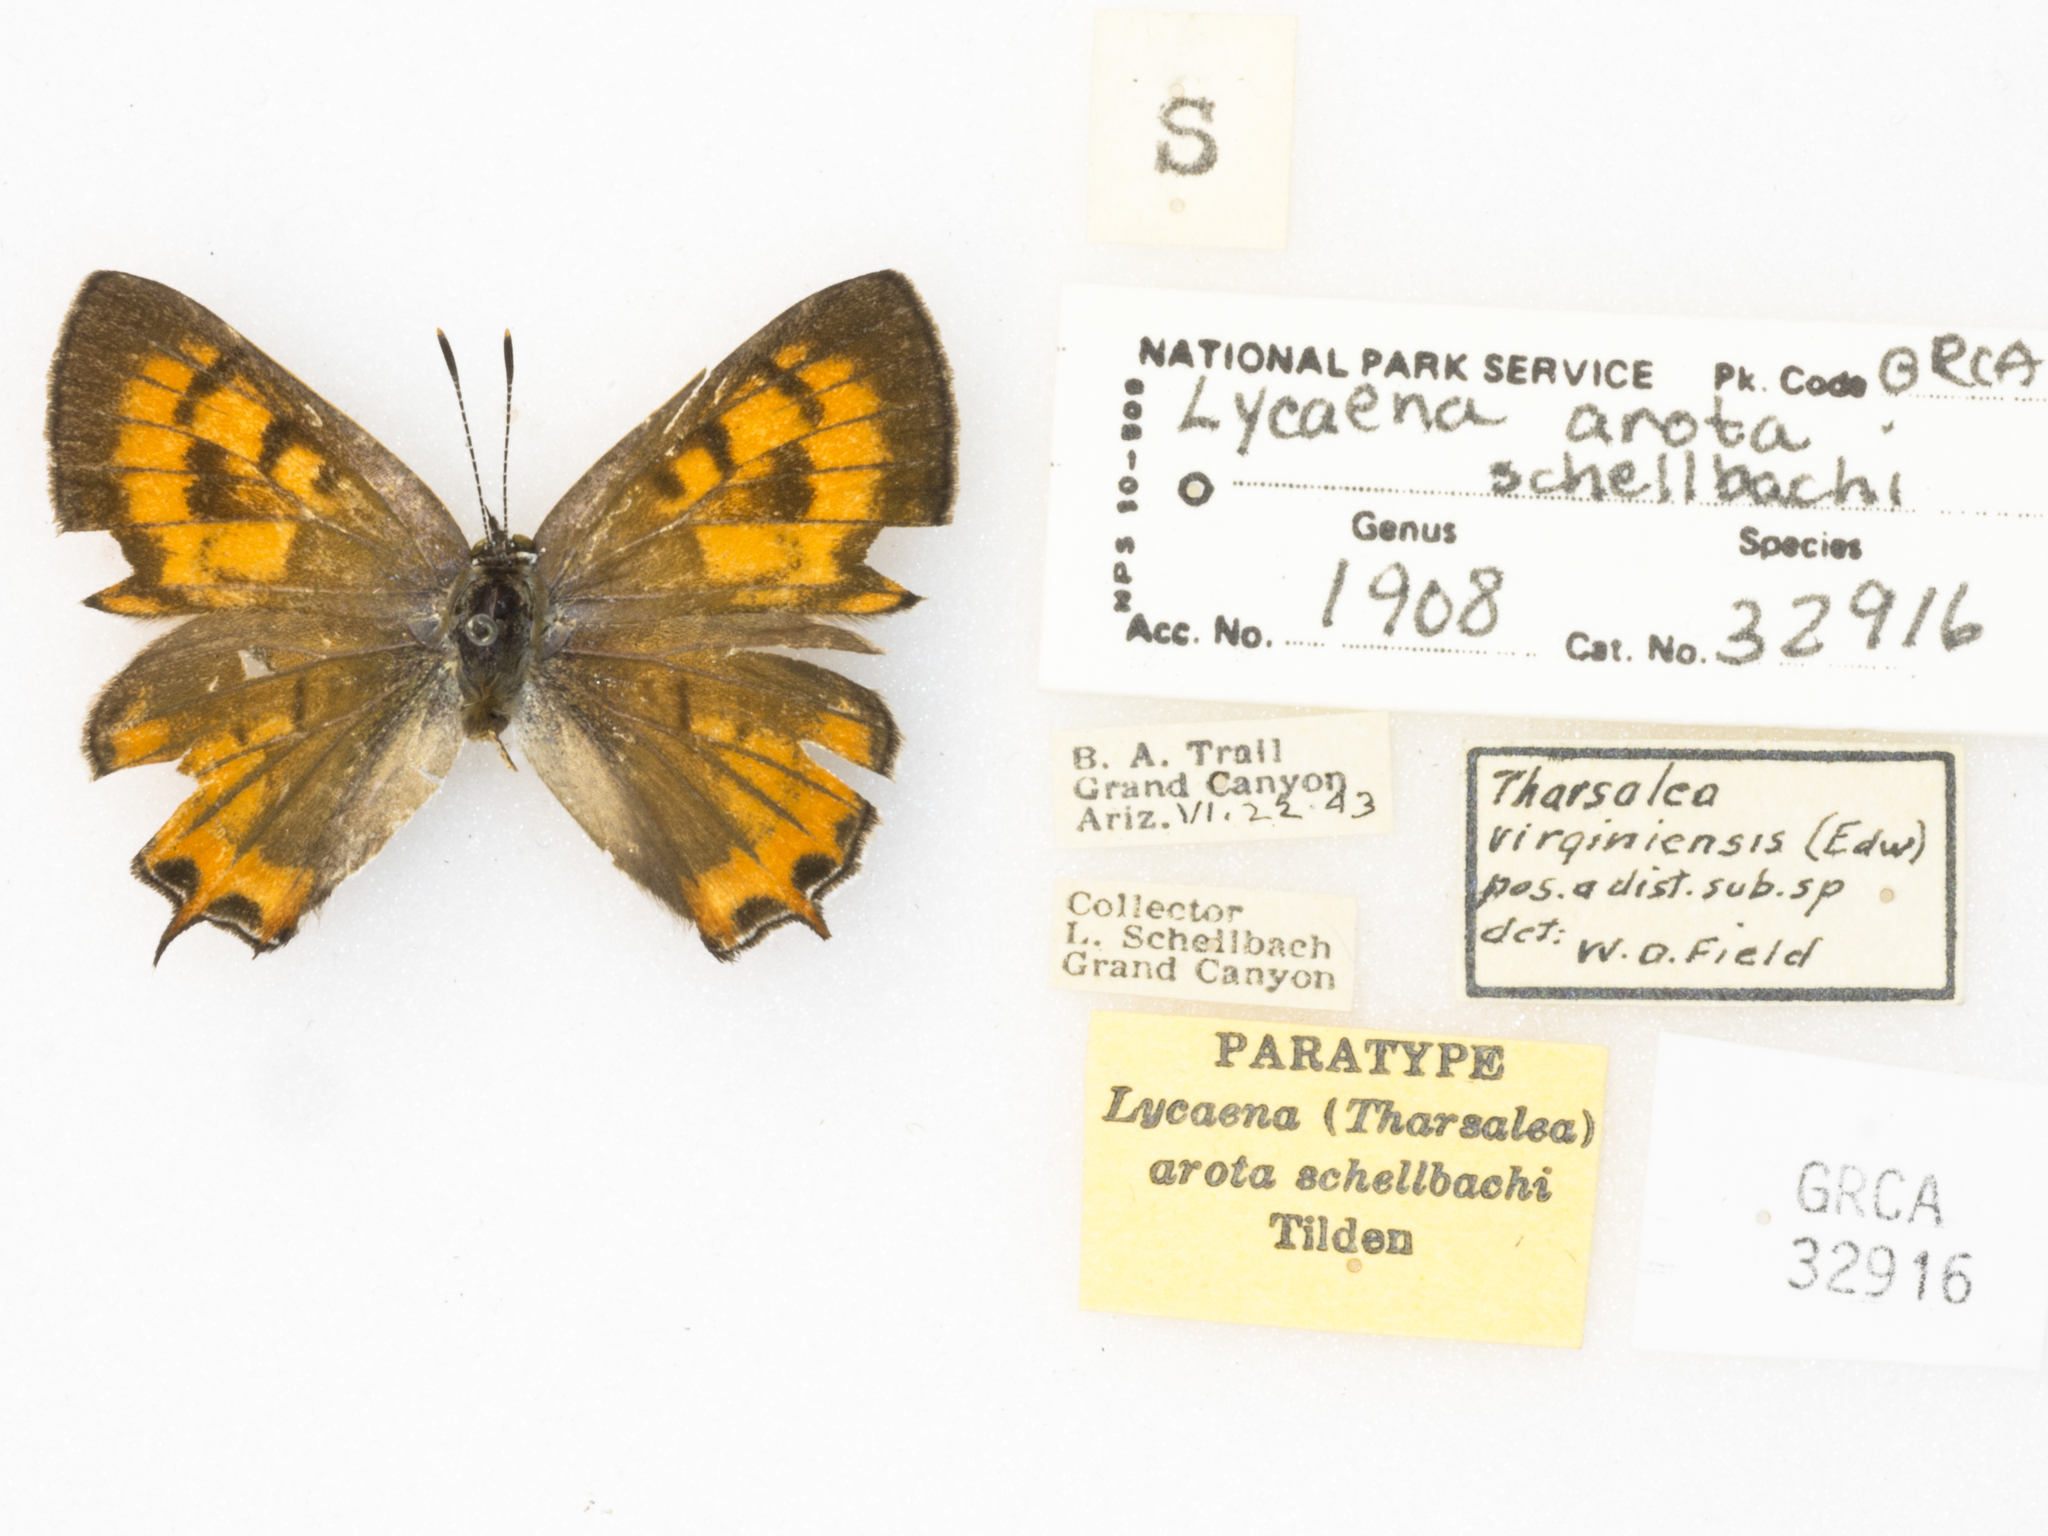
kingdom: Animalia
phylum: Arthropoda
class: Insecta
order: Lepidoptera
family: Lycaenidae
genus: Tharsalea
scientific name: Tharsalea arota
